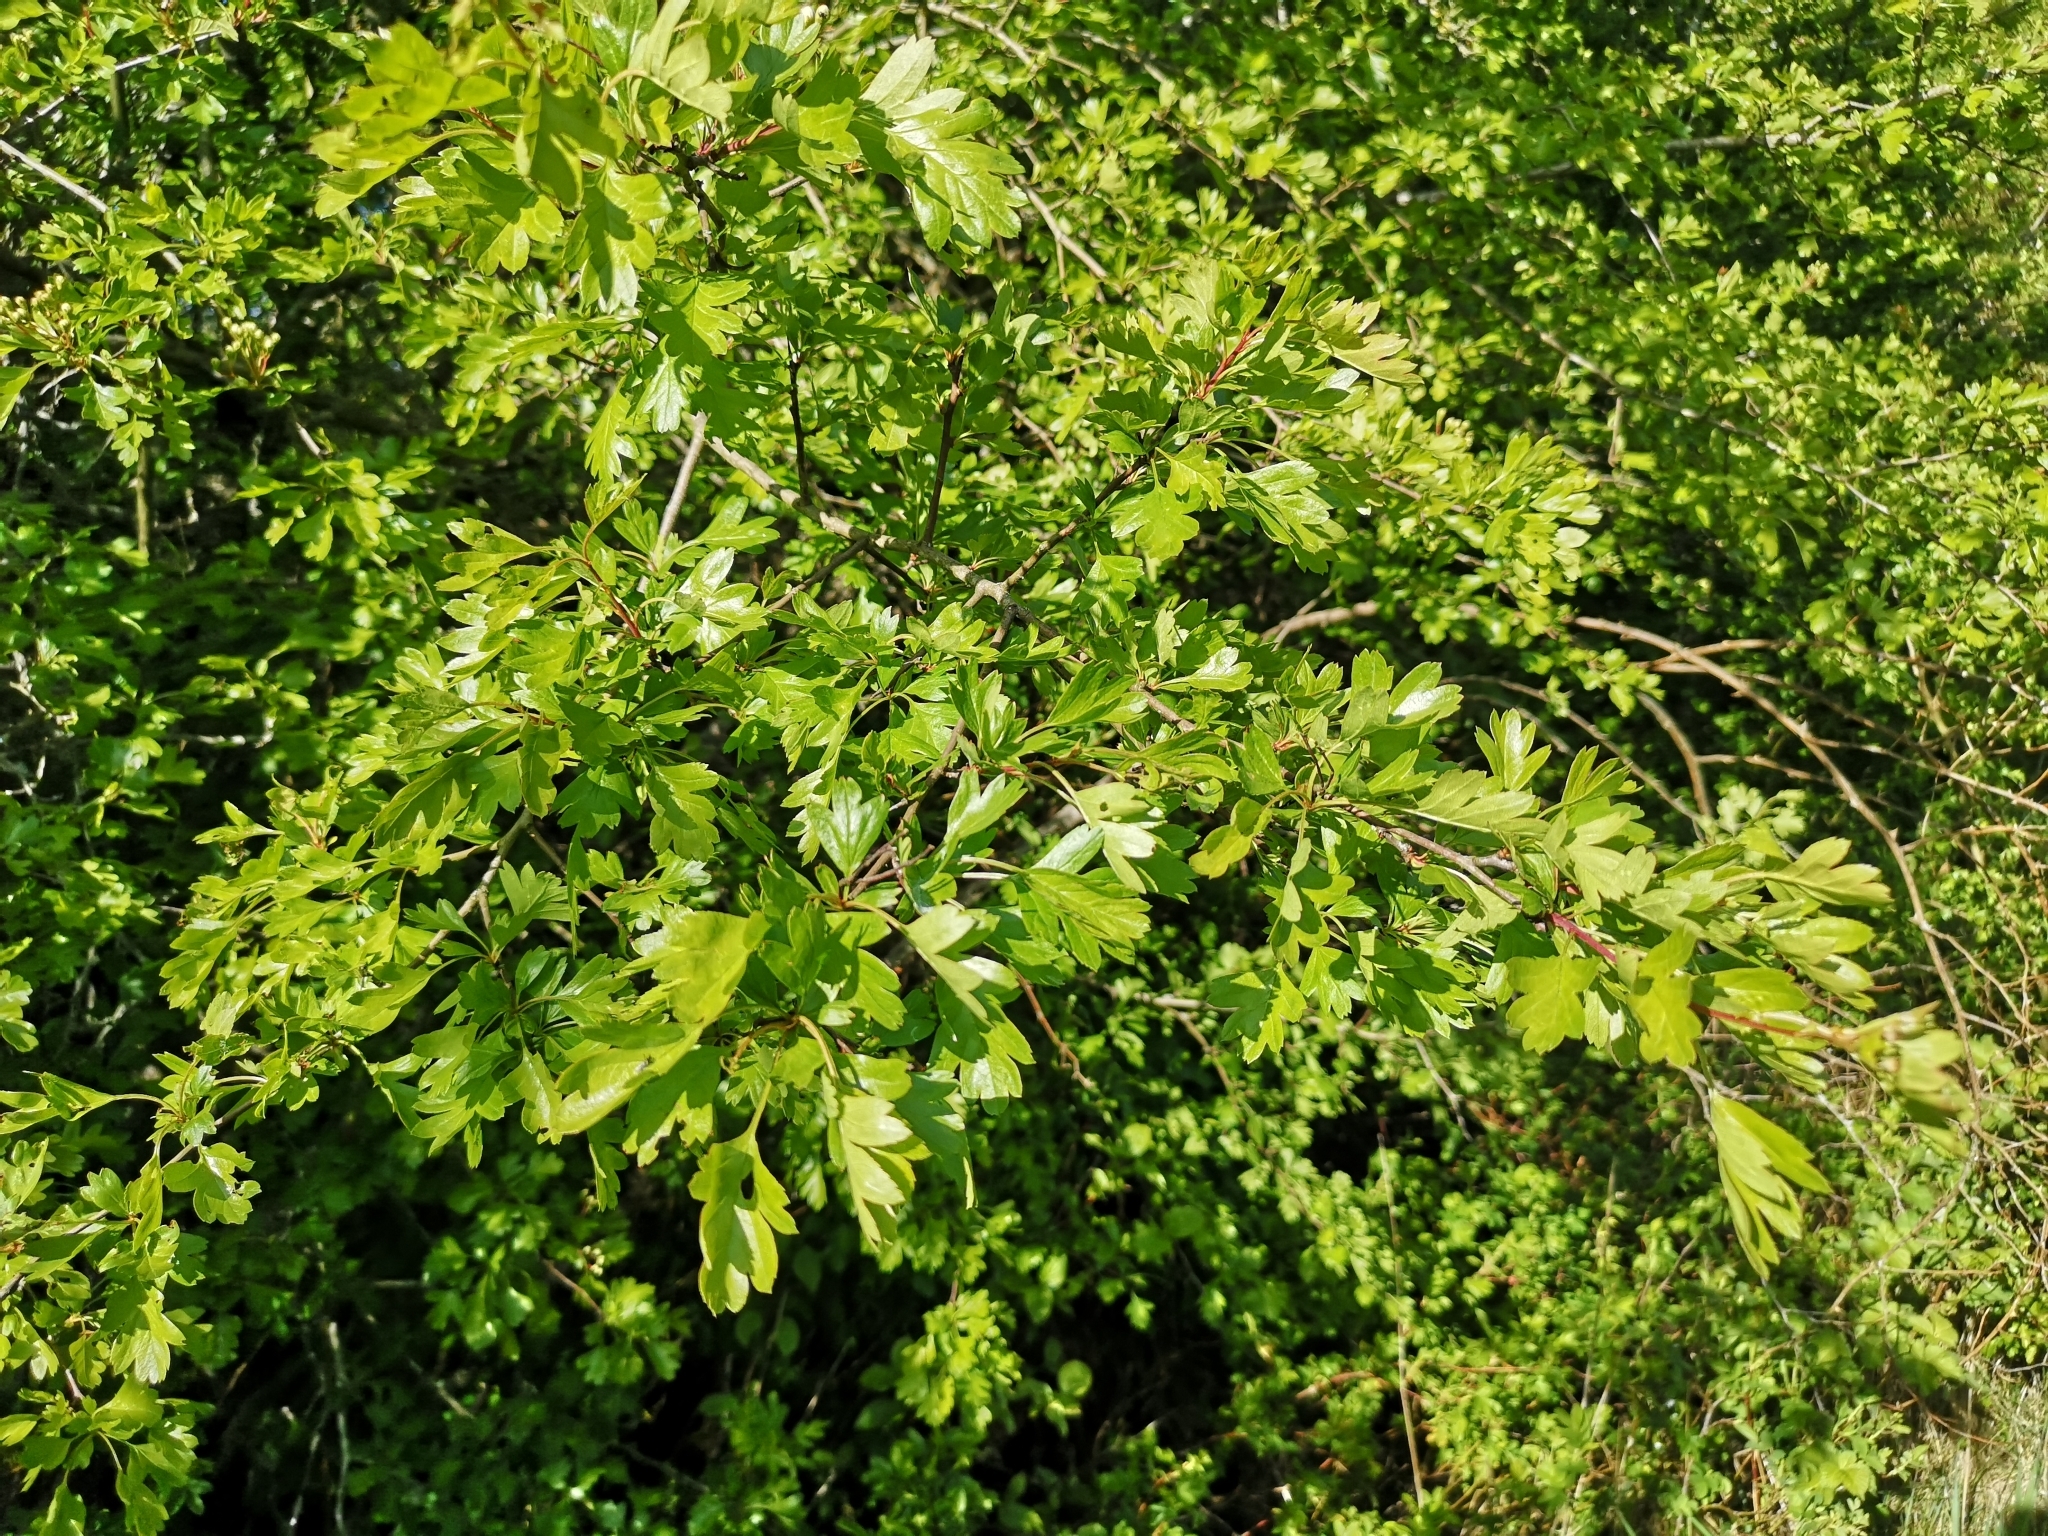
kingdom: Plantae
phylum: Tracheophyta
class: Magnoliopsida
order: Rosales
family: Rosaceae
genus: Crataegus
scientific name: Crataegus monogyna
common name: Hawthorn
